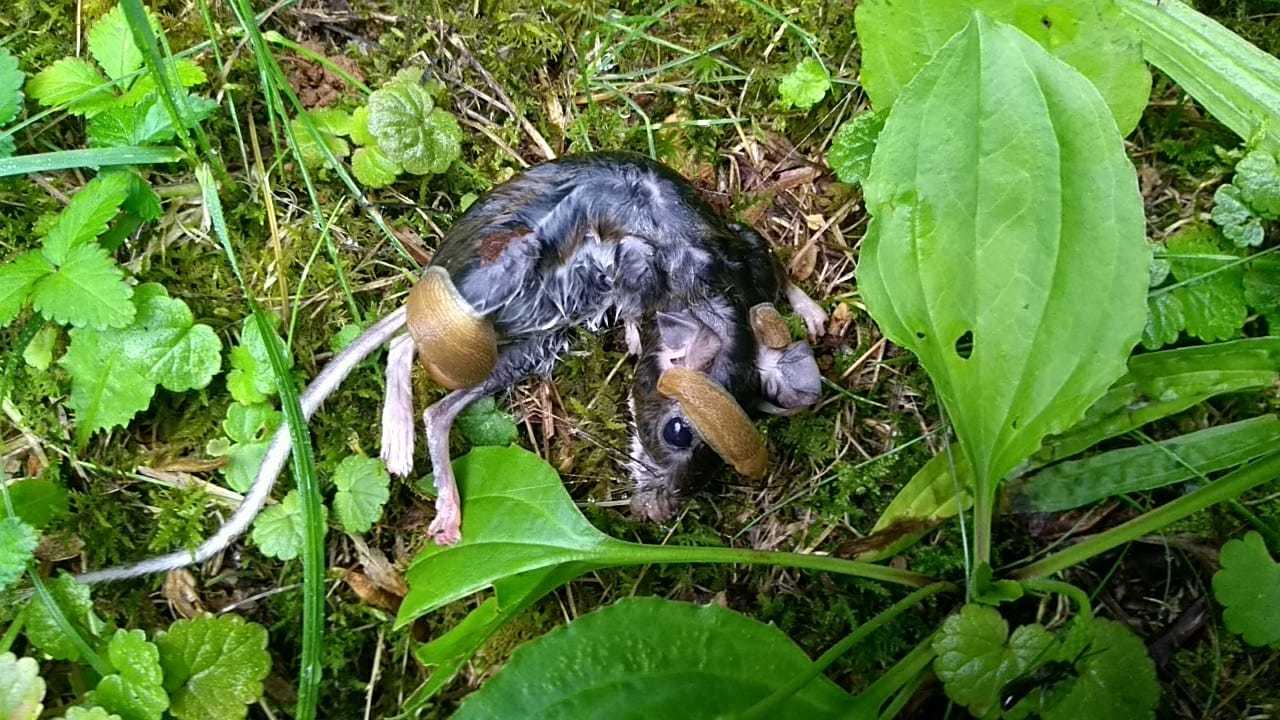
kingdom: Animalia
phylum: Chordata
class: Mammalia
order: Rodentia
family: Cricetidae
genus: Peromyscus
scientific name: Peromyscus leucopus
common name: White-footed deermouse
